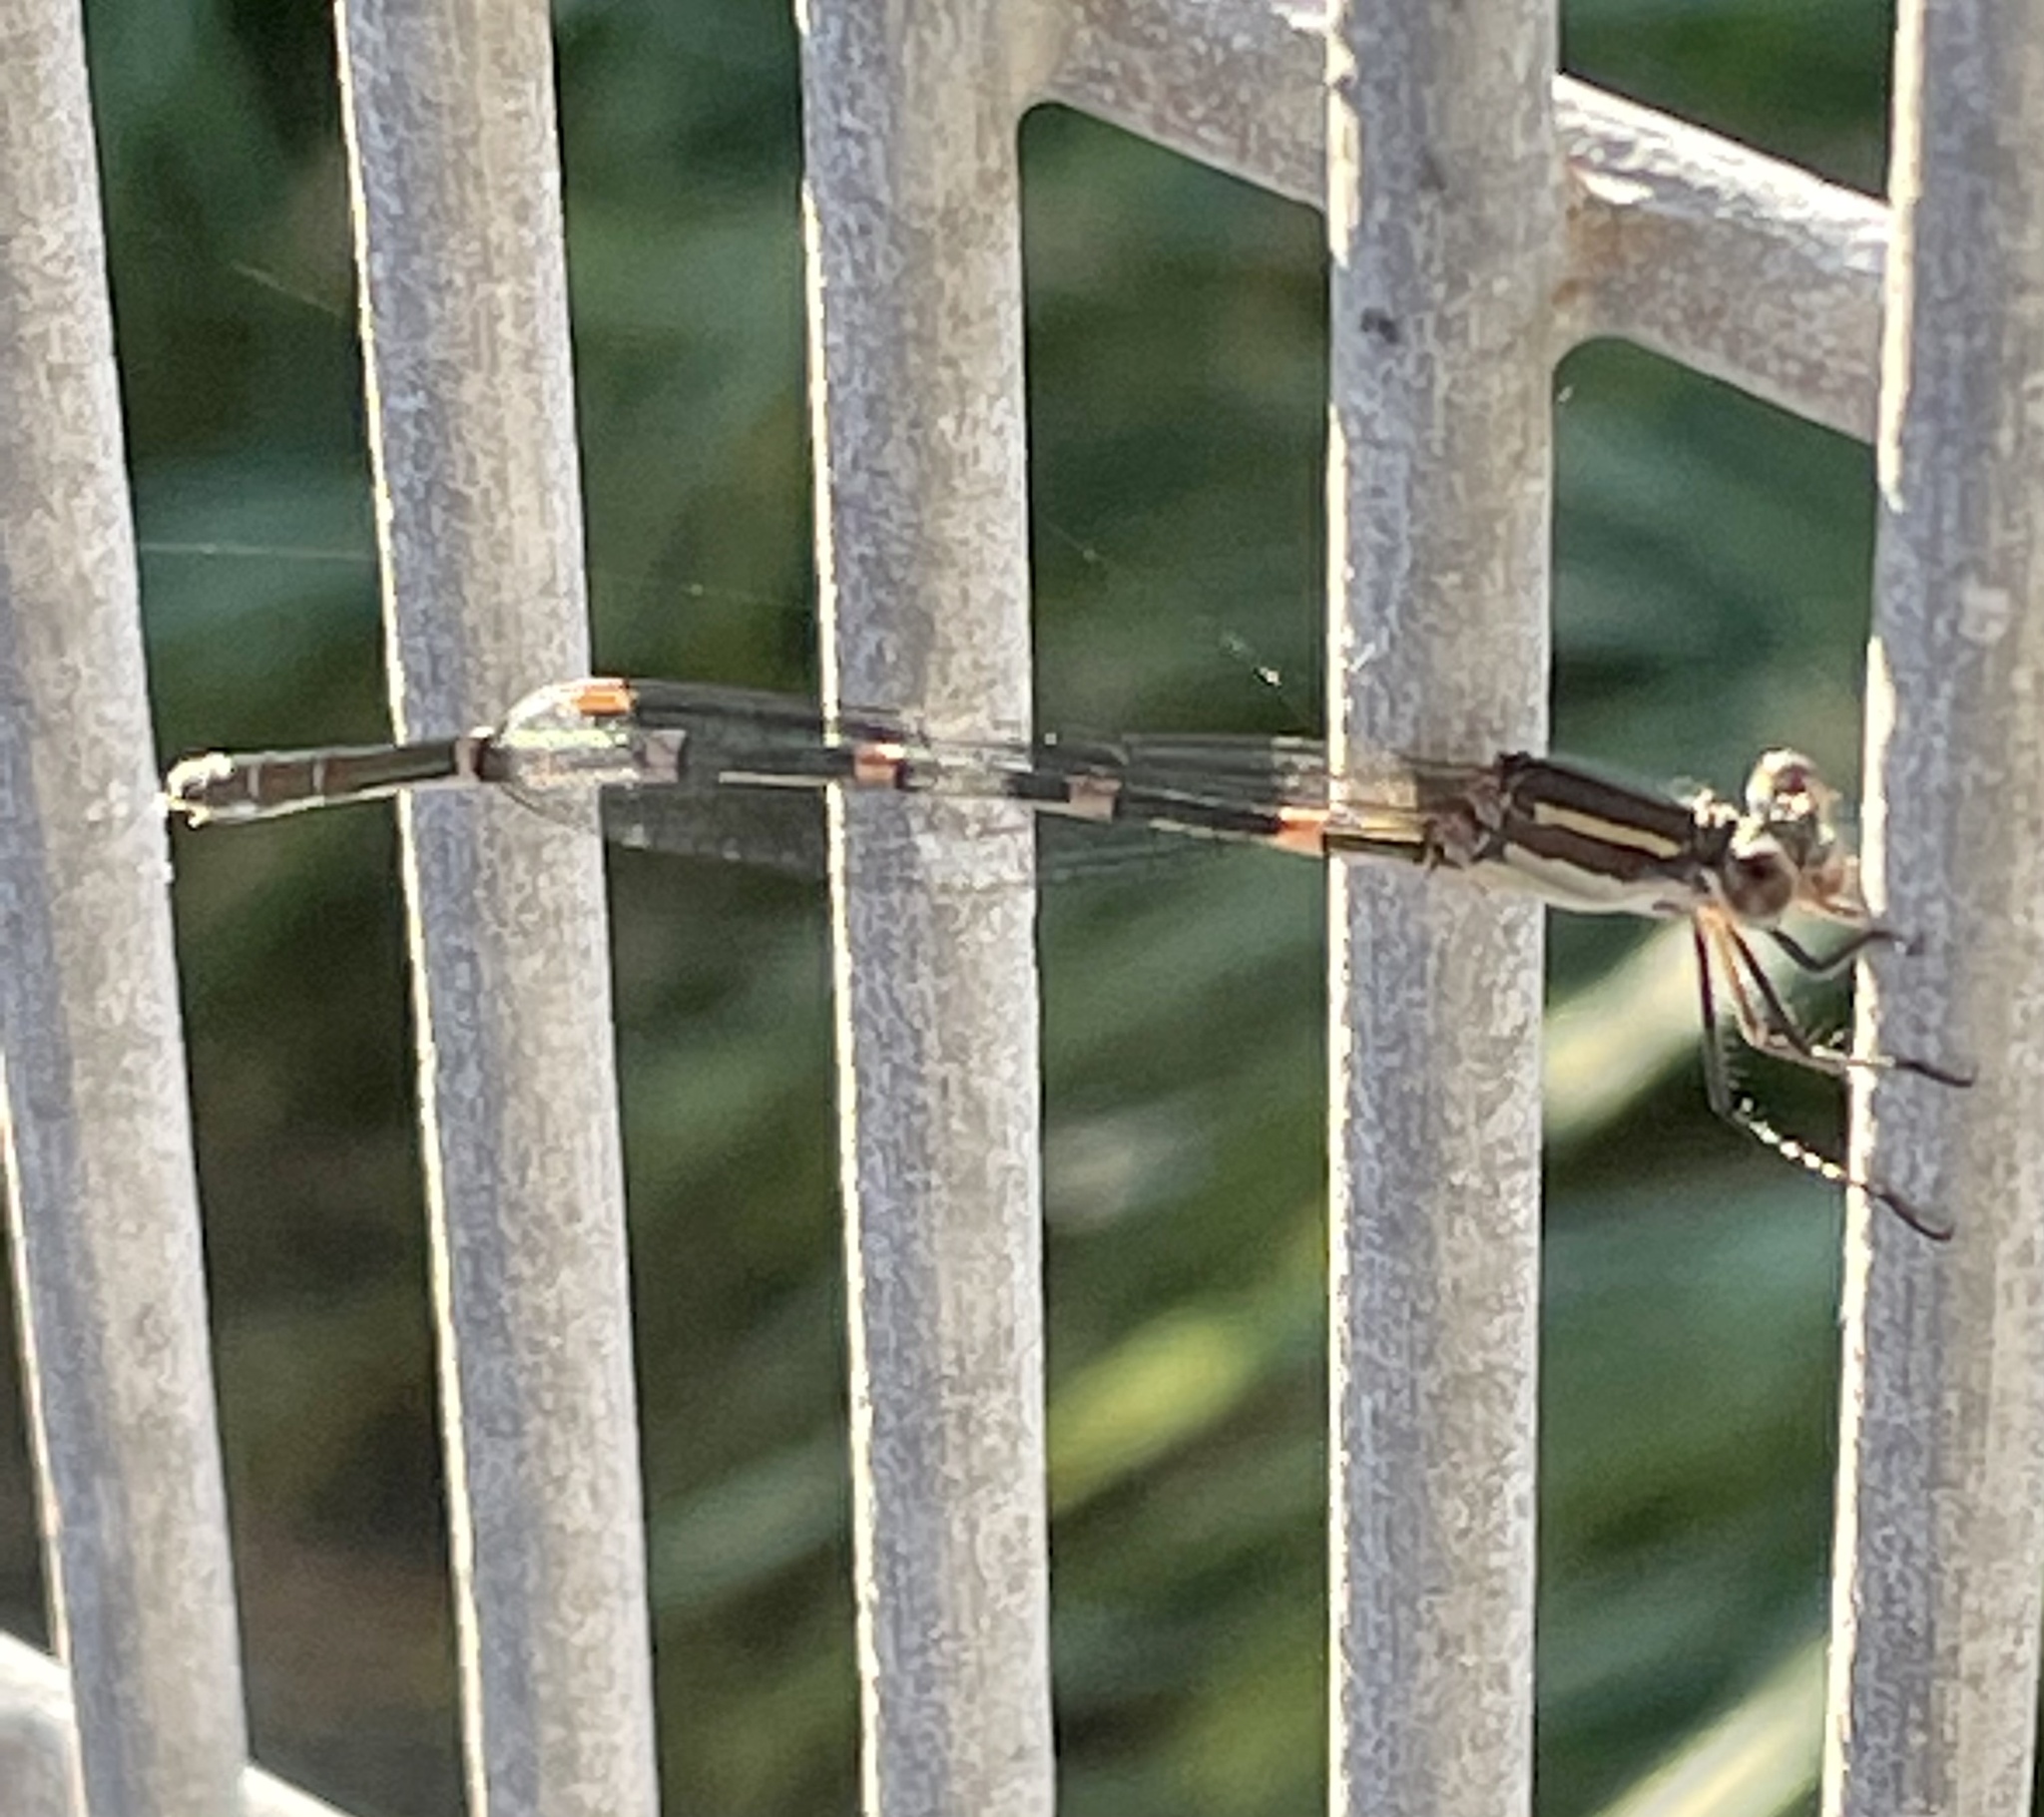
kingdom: Animalia
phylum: Arthropoda
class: Insecta
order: Odonata
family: Lestidae
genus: Austrolestes
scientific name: Austrolestes leda
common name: Wandering ringtail
